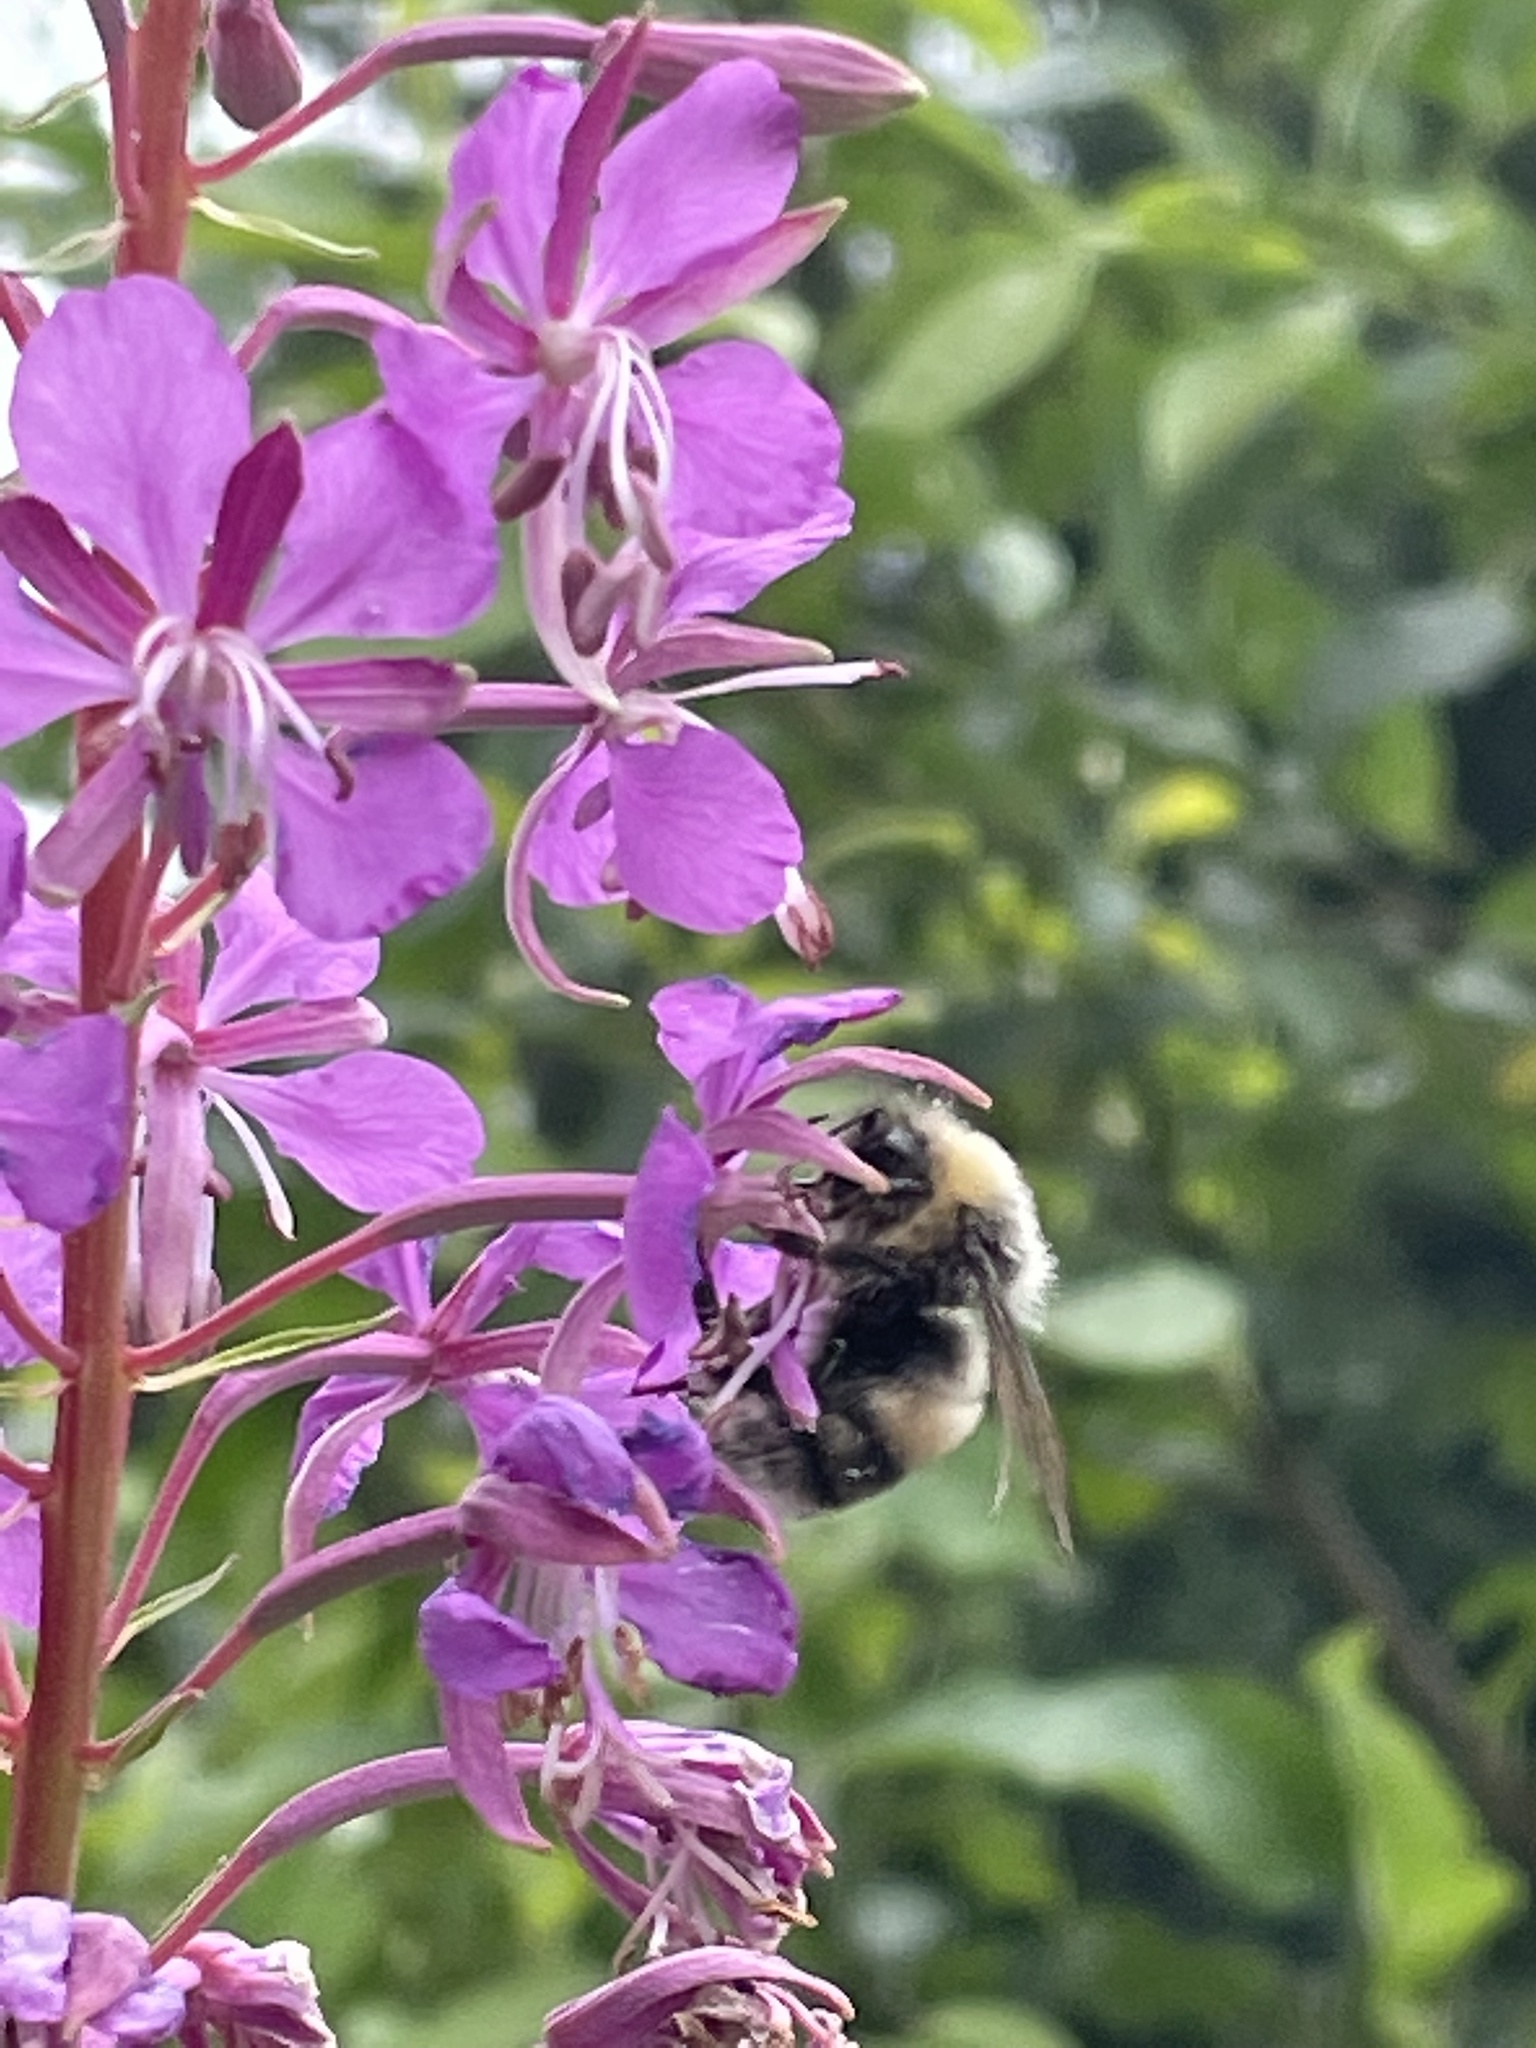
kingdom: Animalia
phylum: Arthropoda
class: Insecta
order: Hymenoptera
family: Apidae
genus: Bombus
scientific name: Bombus lucorum
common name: White-tailed bumblebee
